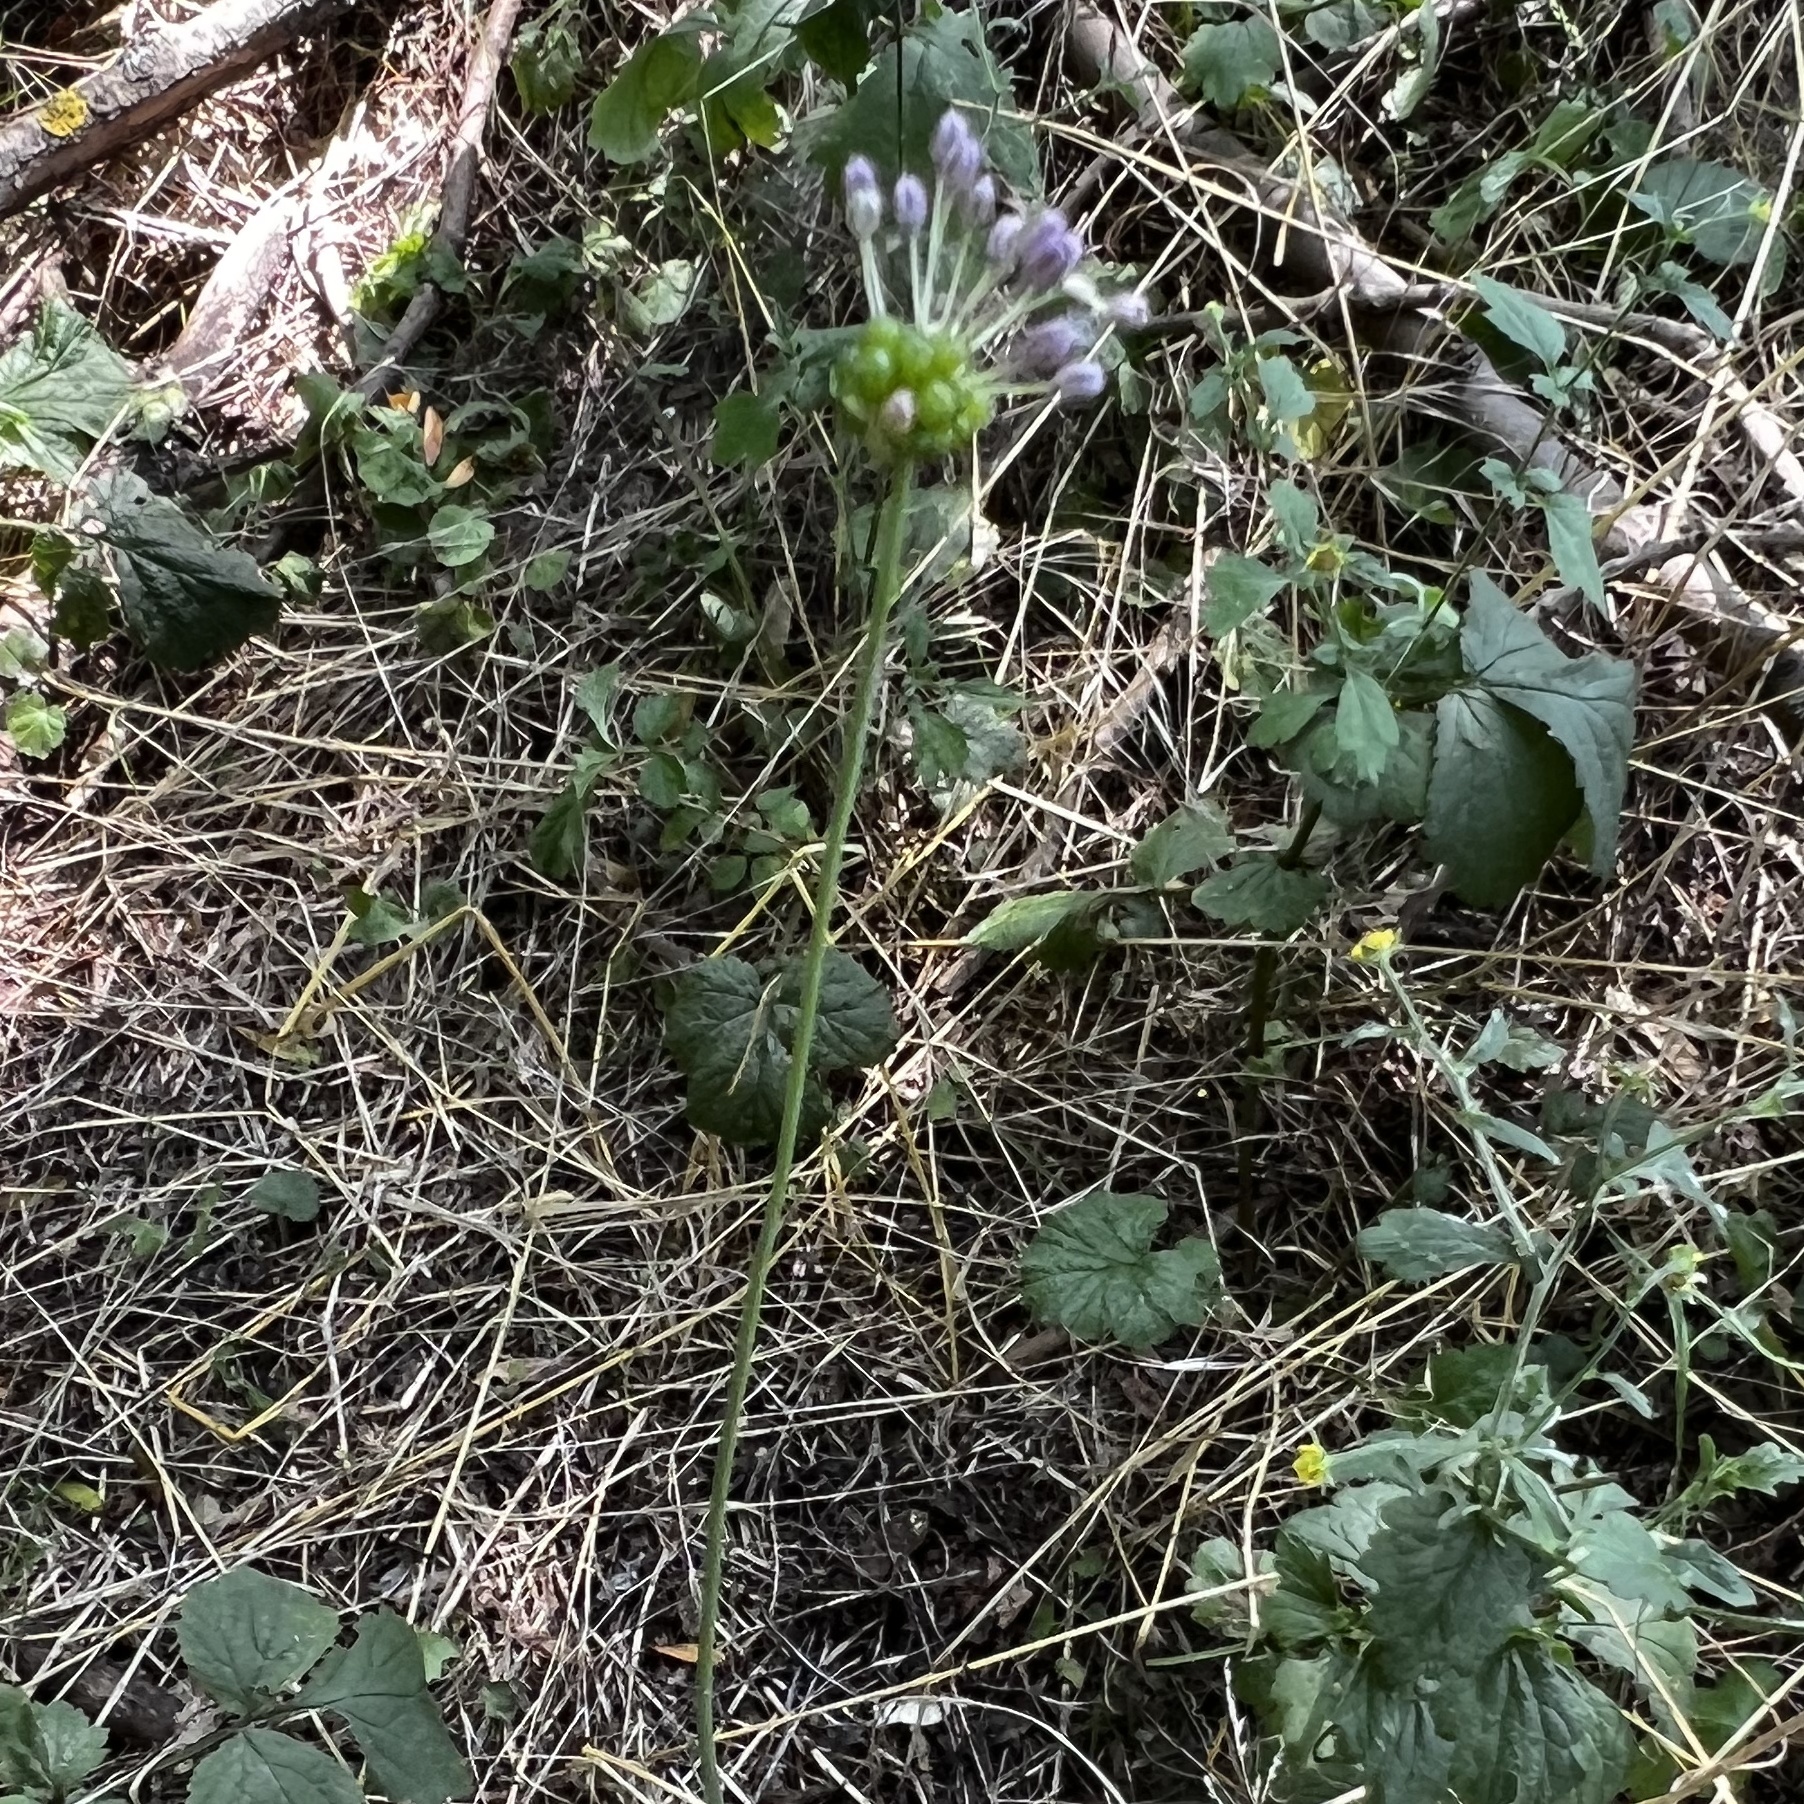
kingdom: Plantae
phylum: Tracheophyta
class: Liliopsida
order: Asparagales
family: Amaryllidaceae
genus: Allium
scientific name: Allium vineale
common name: Crow garlic
